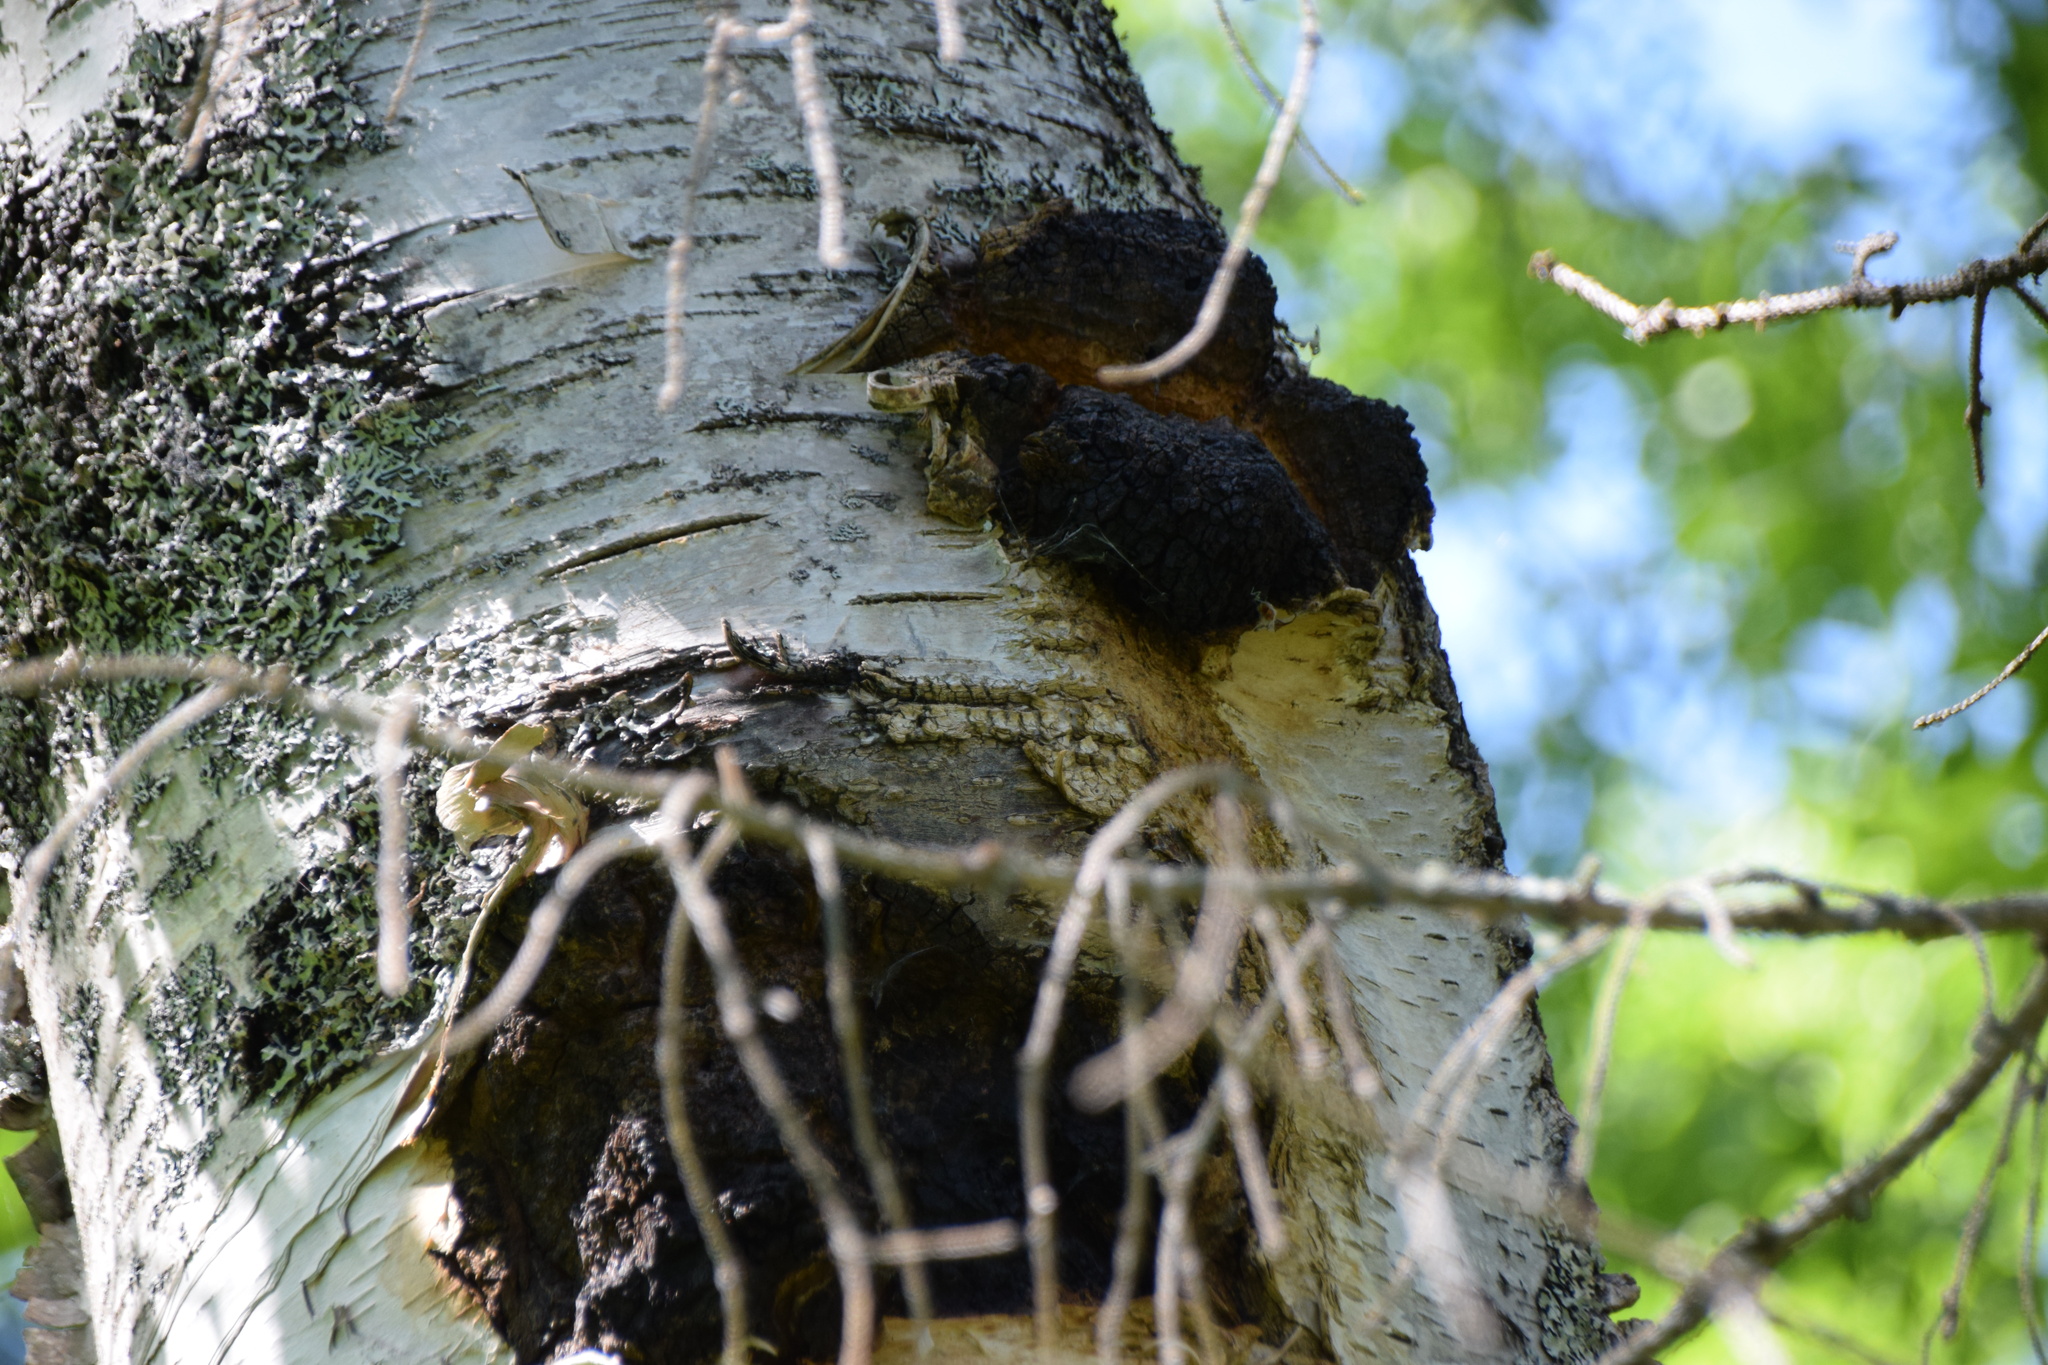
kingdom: Fungi
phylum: Basidiomycota
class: Agaricomycetes
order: Hymenochaetales
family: Hymenochaetaceae
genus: Inonotus
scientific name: Inonotus obliquus
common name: Chaga
